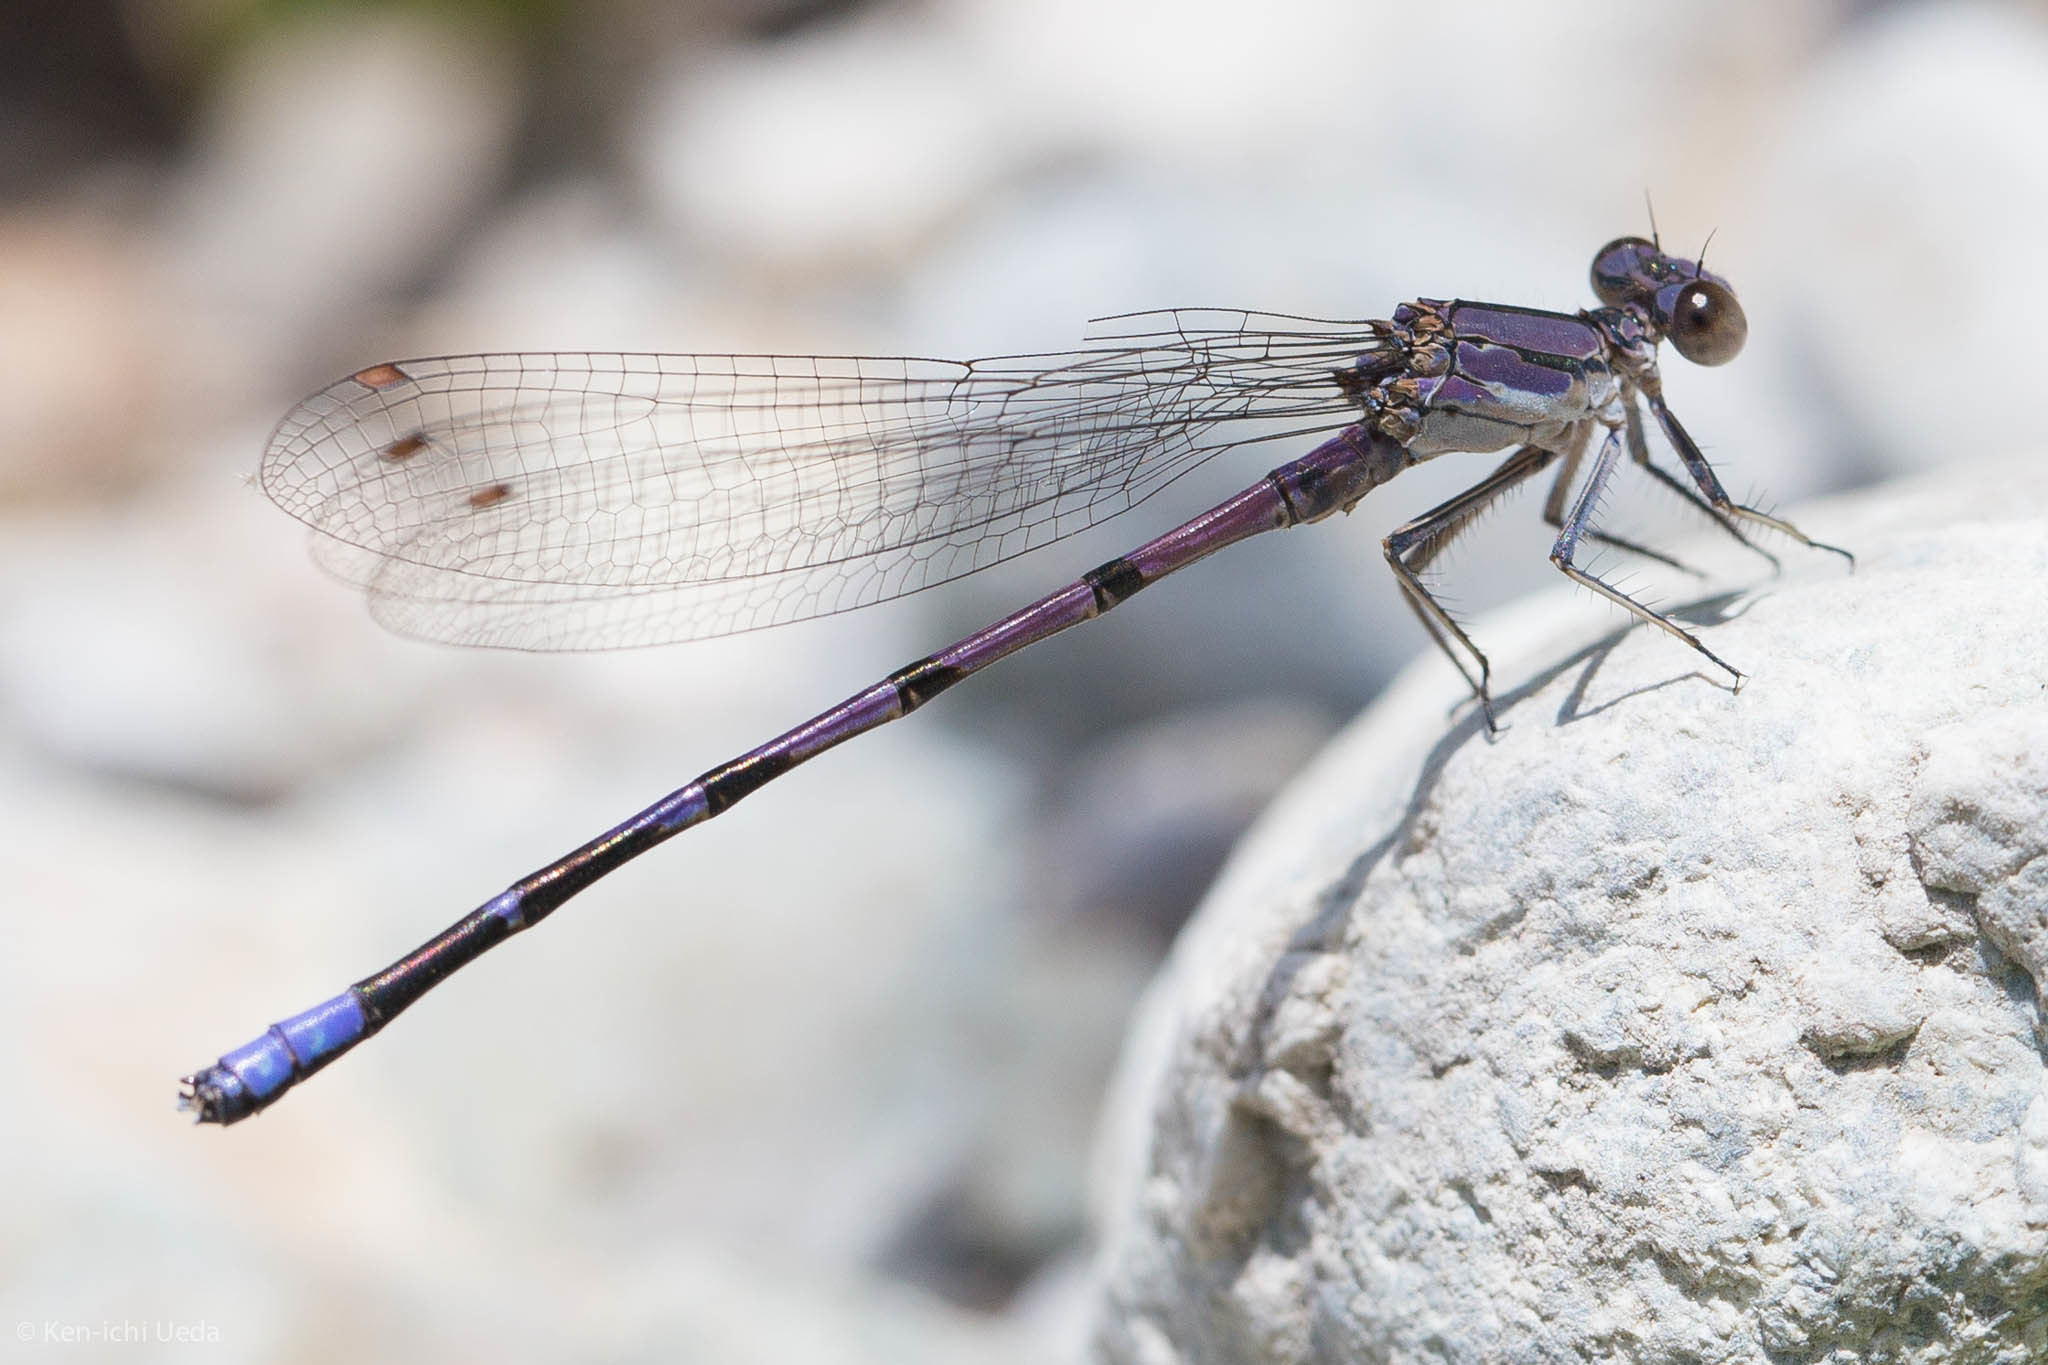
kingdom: Animalia
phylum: Arthropoda
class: Insecta
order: Odonata
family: Coenagrionidae
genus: Argia
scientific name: Argia emma
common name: Emma's dancer
